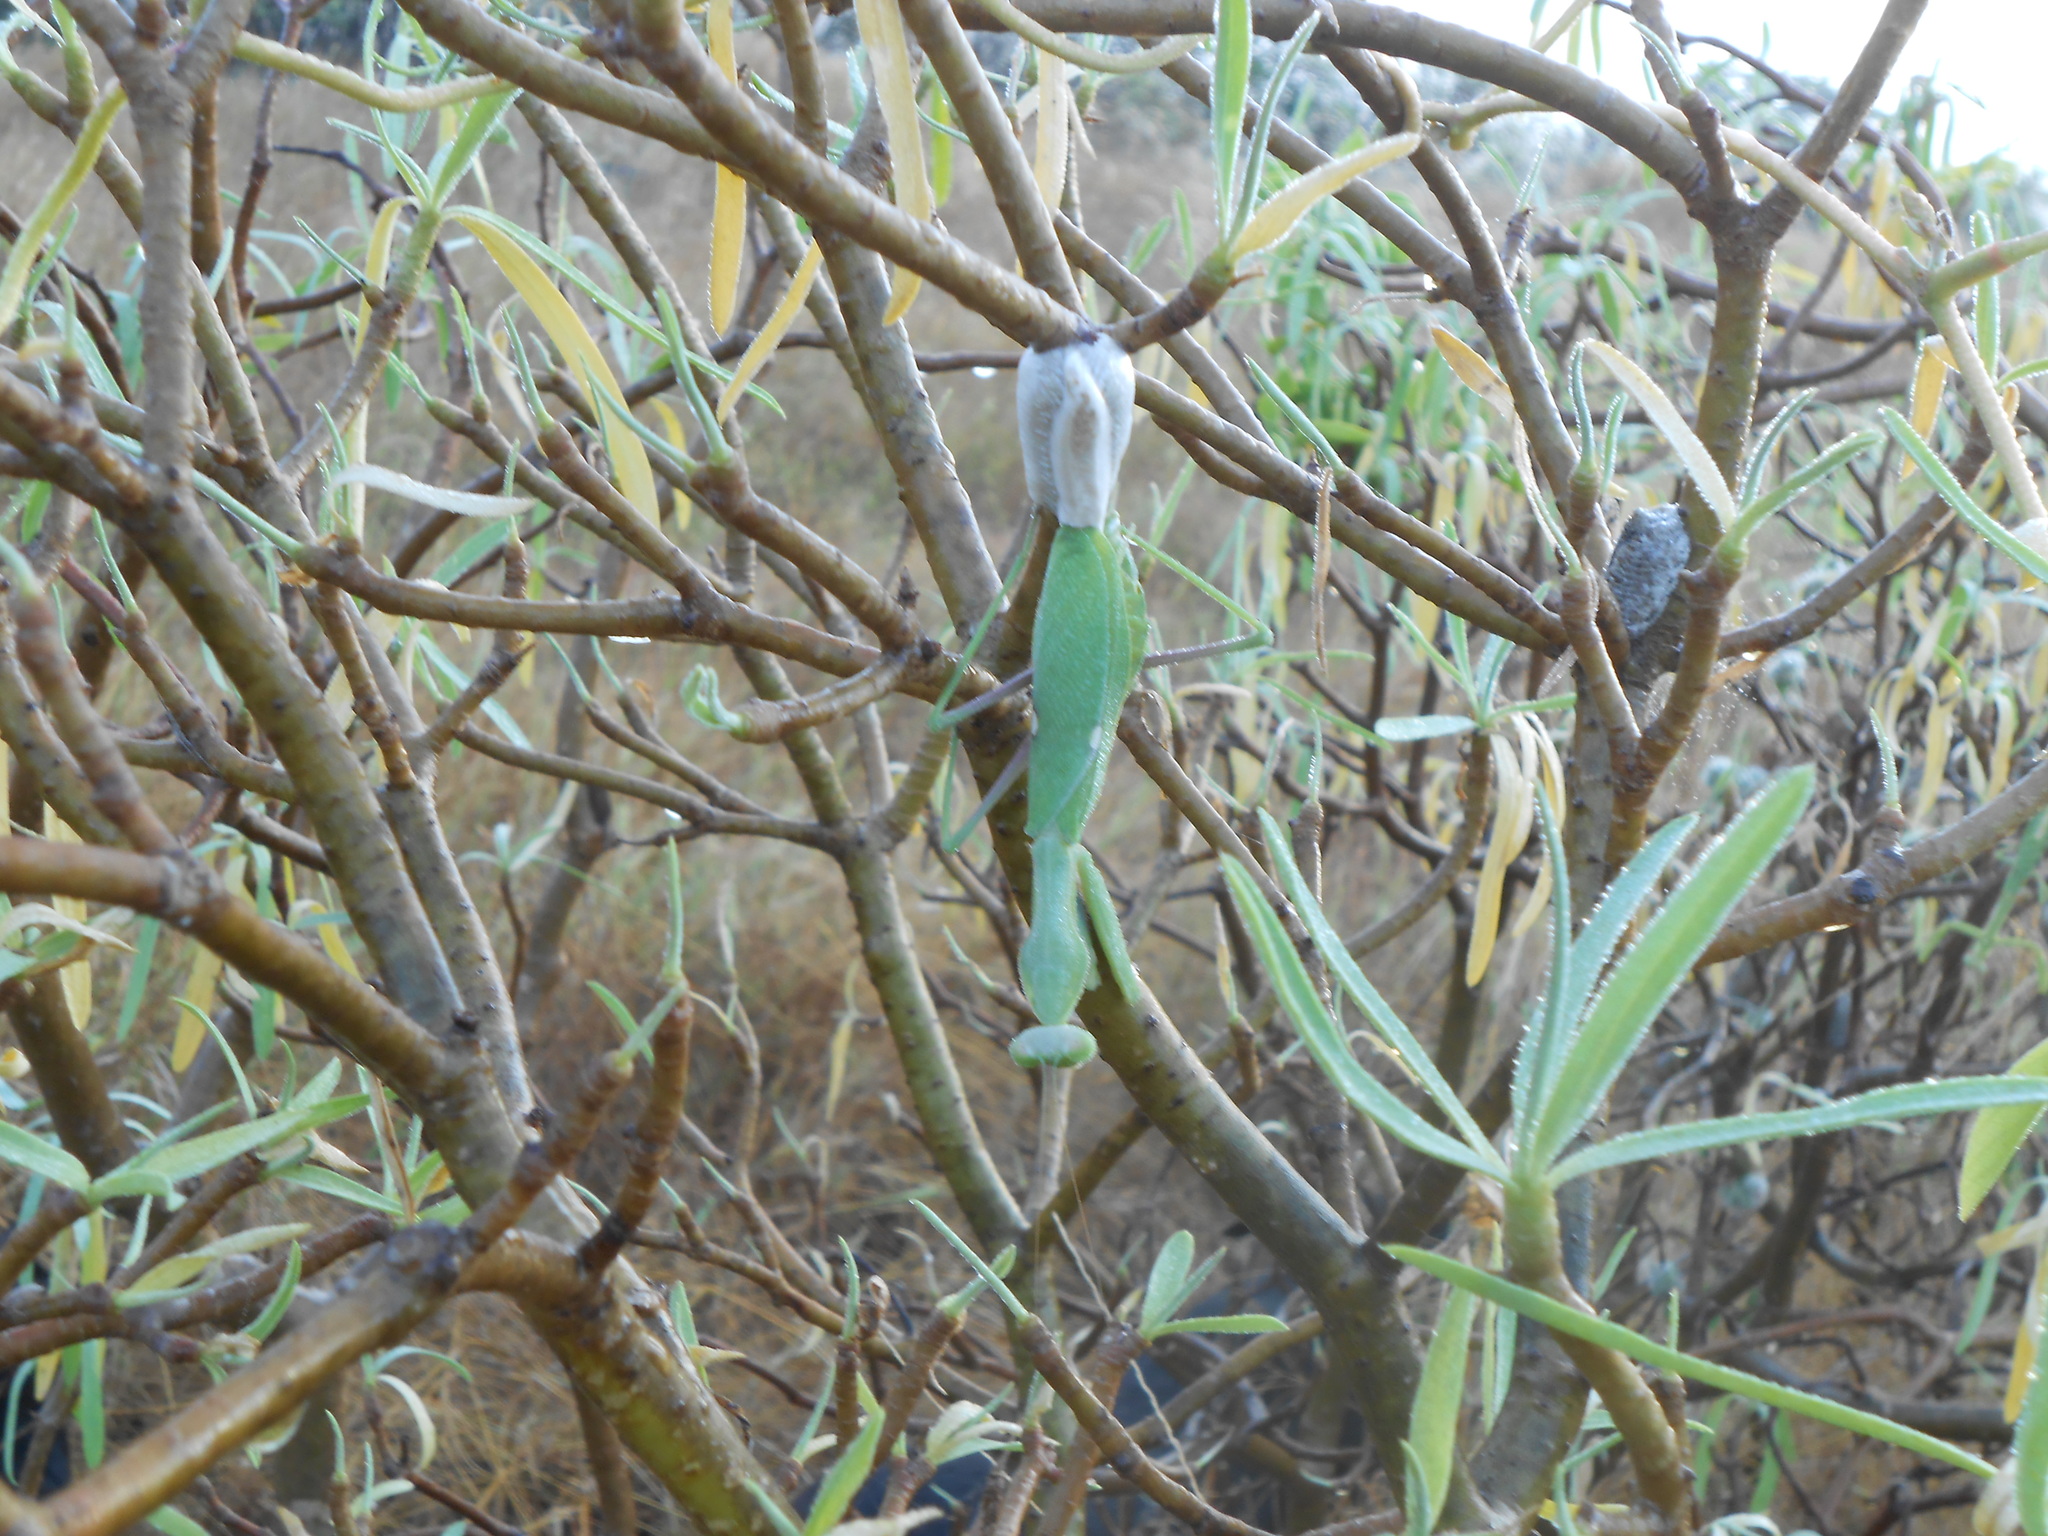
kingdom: Animalia
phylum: Arthropoda
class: Insecta
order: Mantodea
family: Mantidae
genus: Sphodromantis
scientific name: Sphodromantis viridis
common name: Giant african mantis
